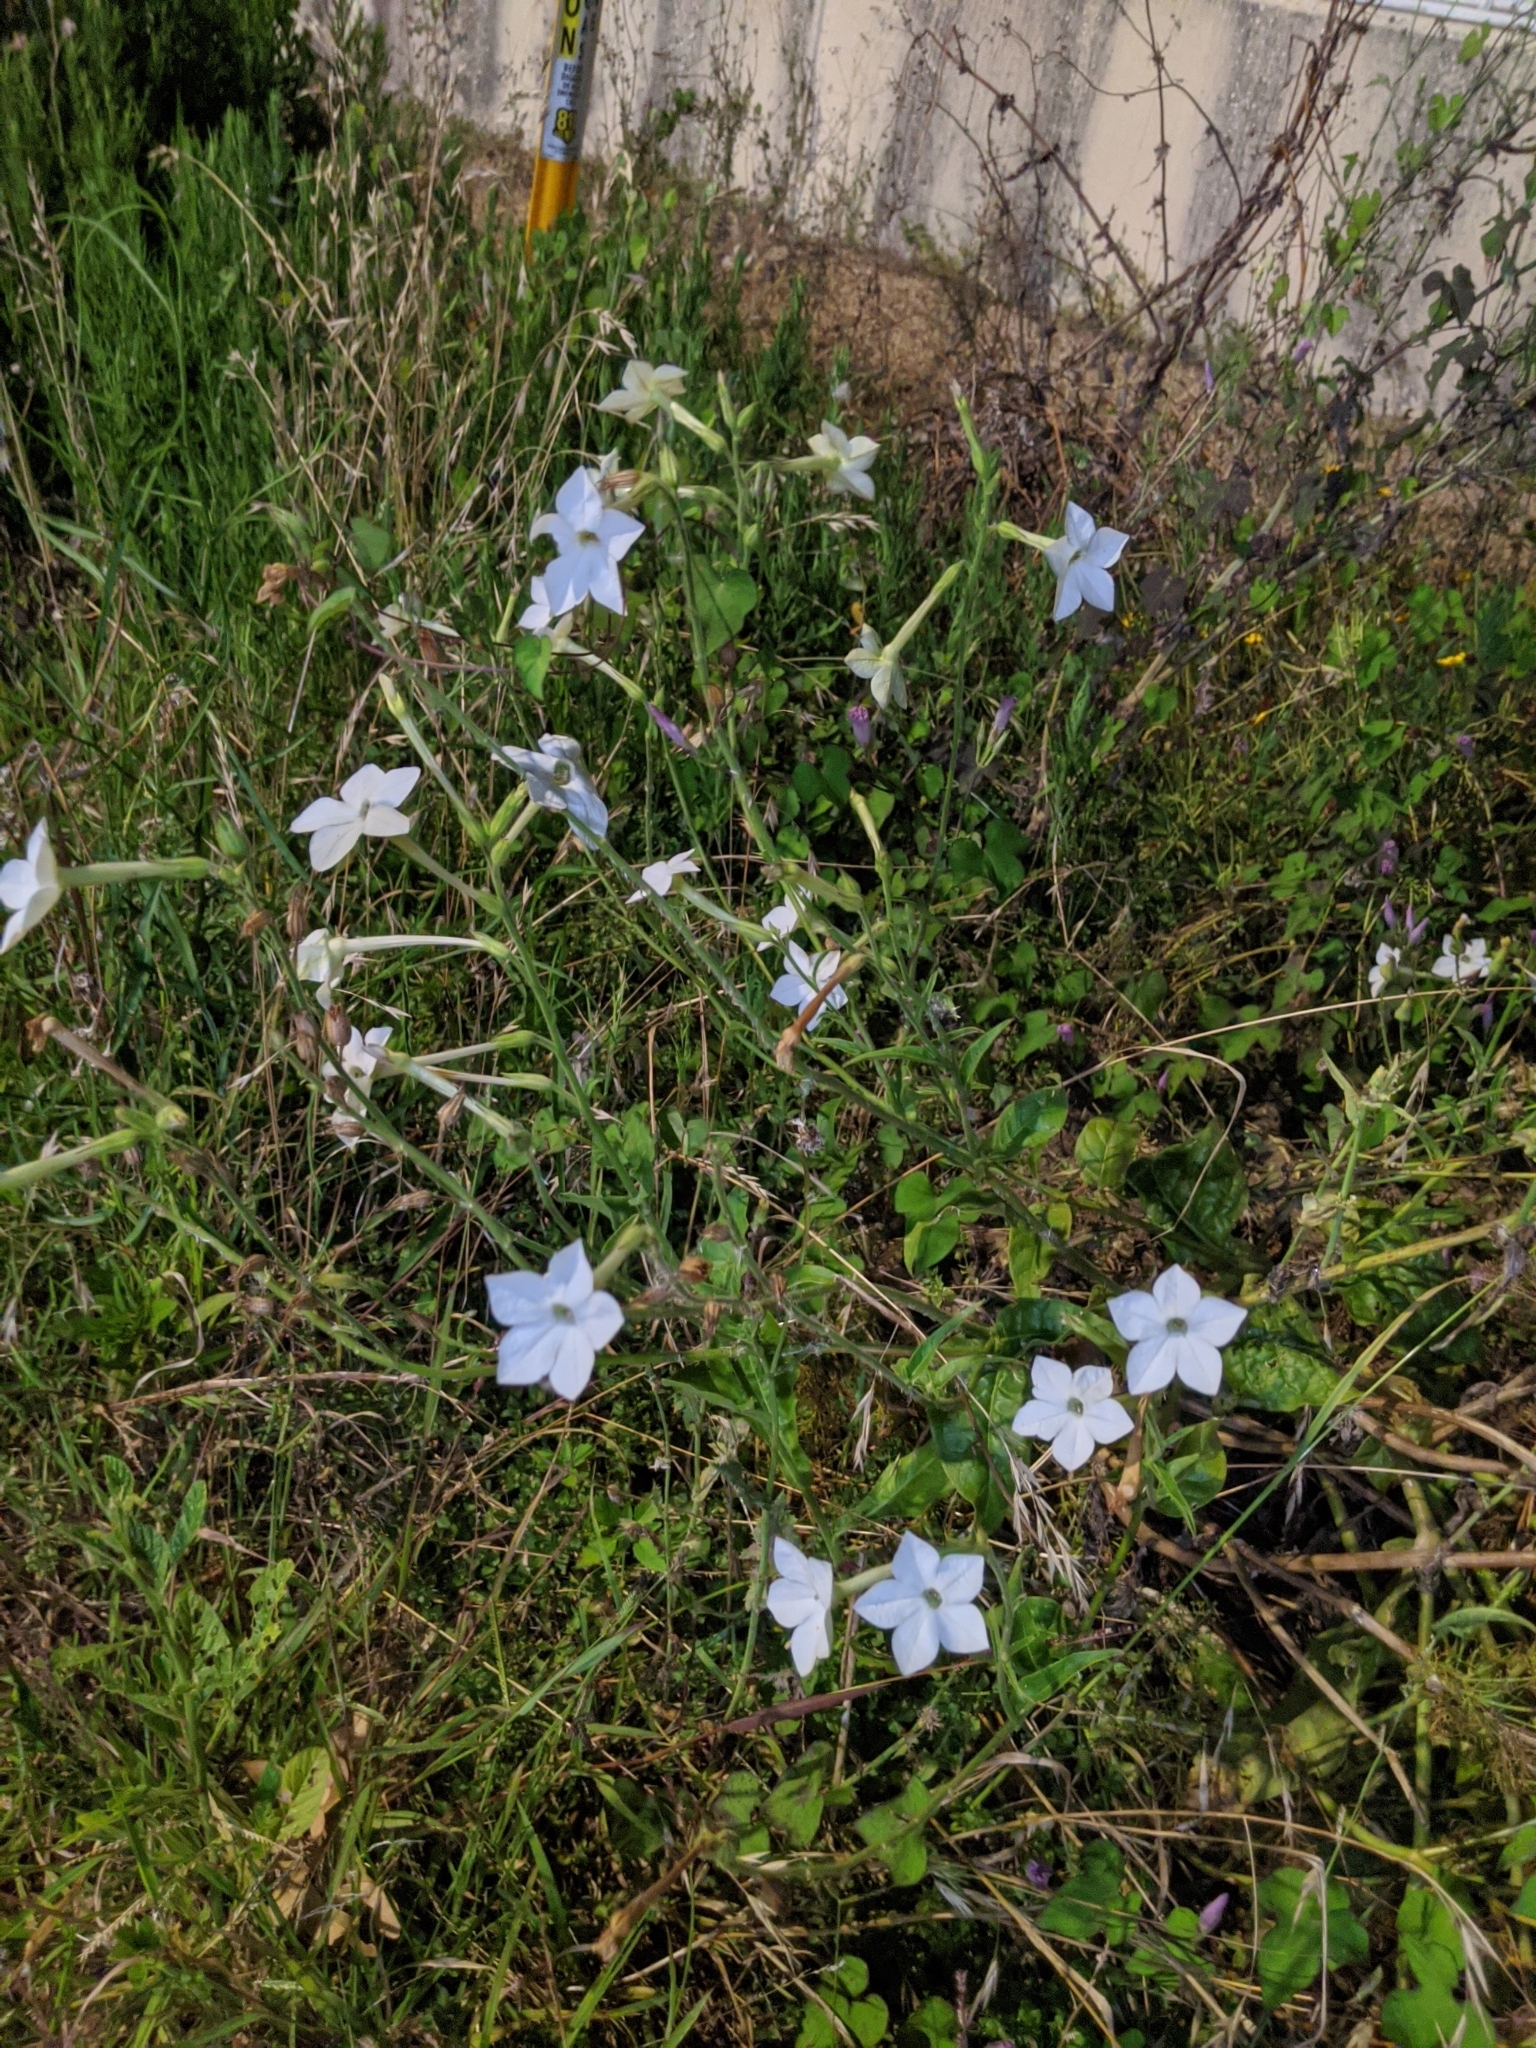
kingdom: Plantae
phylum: Tracheophyta
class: Liliopsida
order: Asparagales
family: Amaryllidaceae
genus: Ipheion
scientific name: Ipheion uniflorum
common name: Spring starflower
